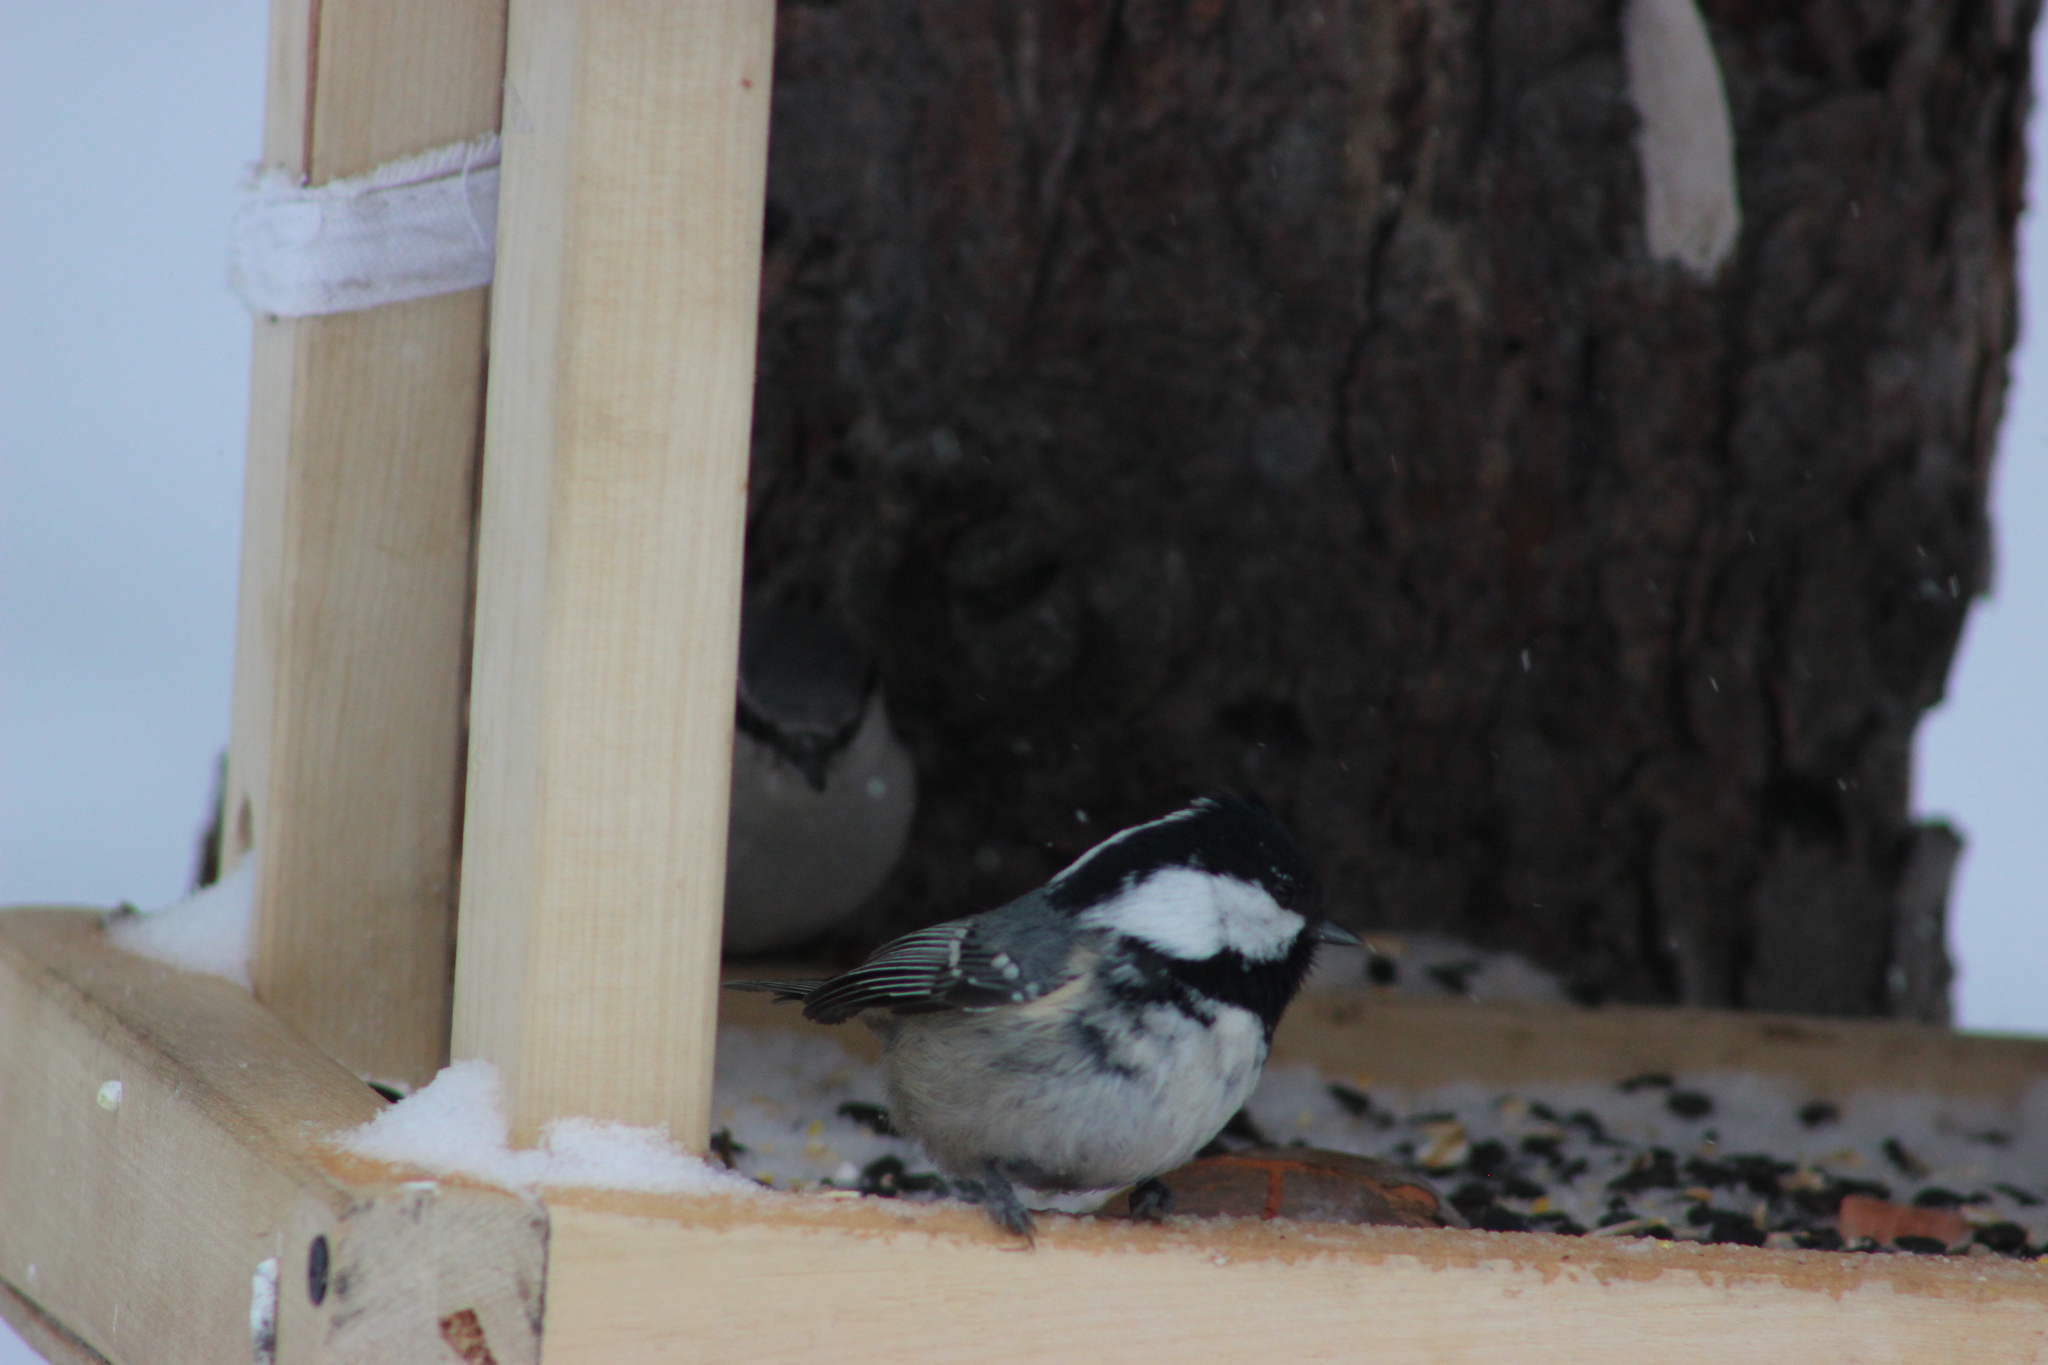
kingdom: Animalia
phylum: Chordata
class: Aves
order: Passeriformes
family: Paridae
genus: Periparus
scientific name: Periparus ater
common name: Coal tit
